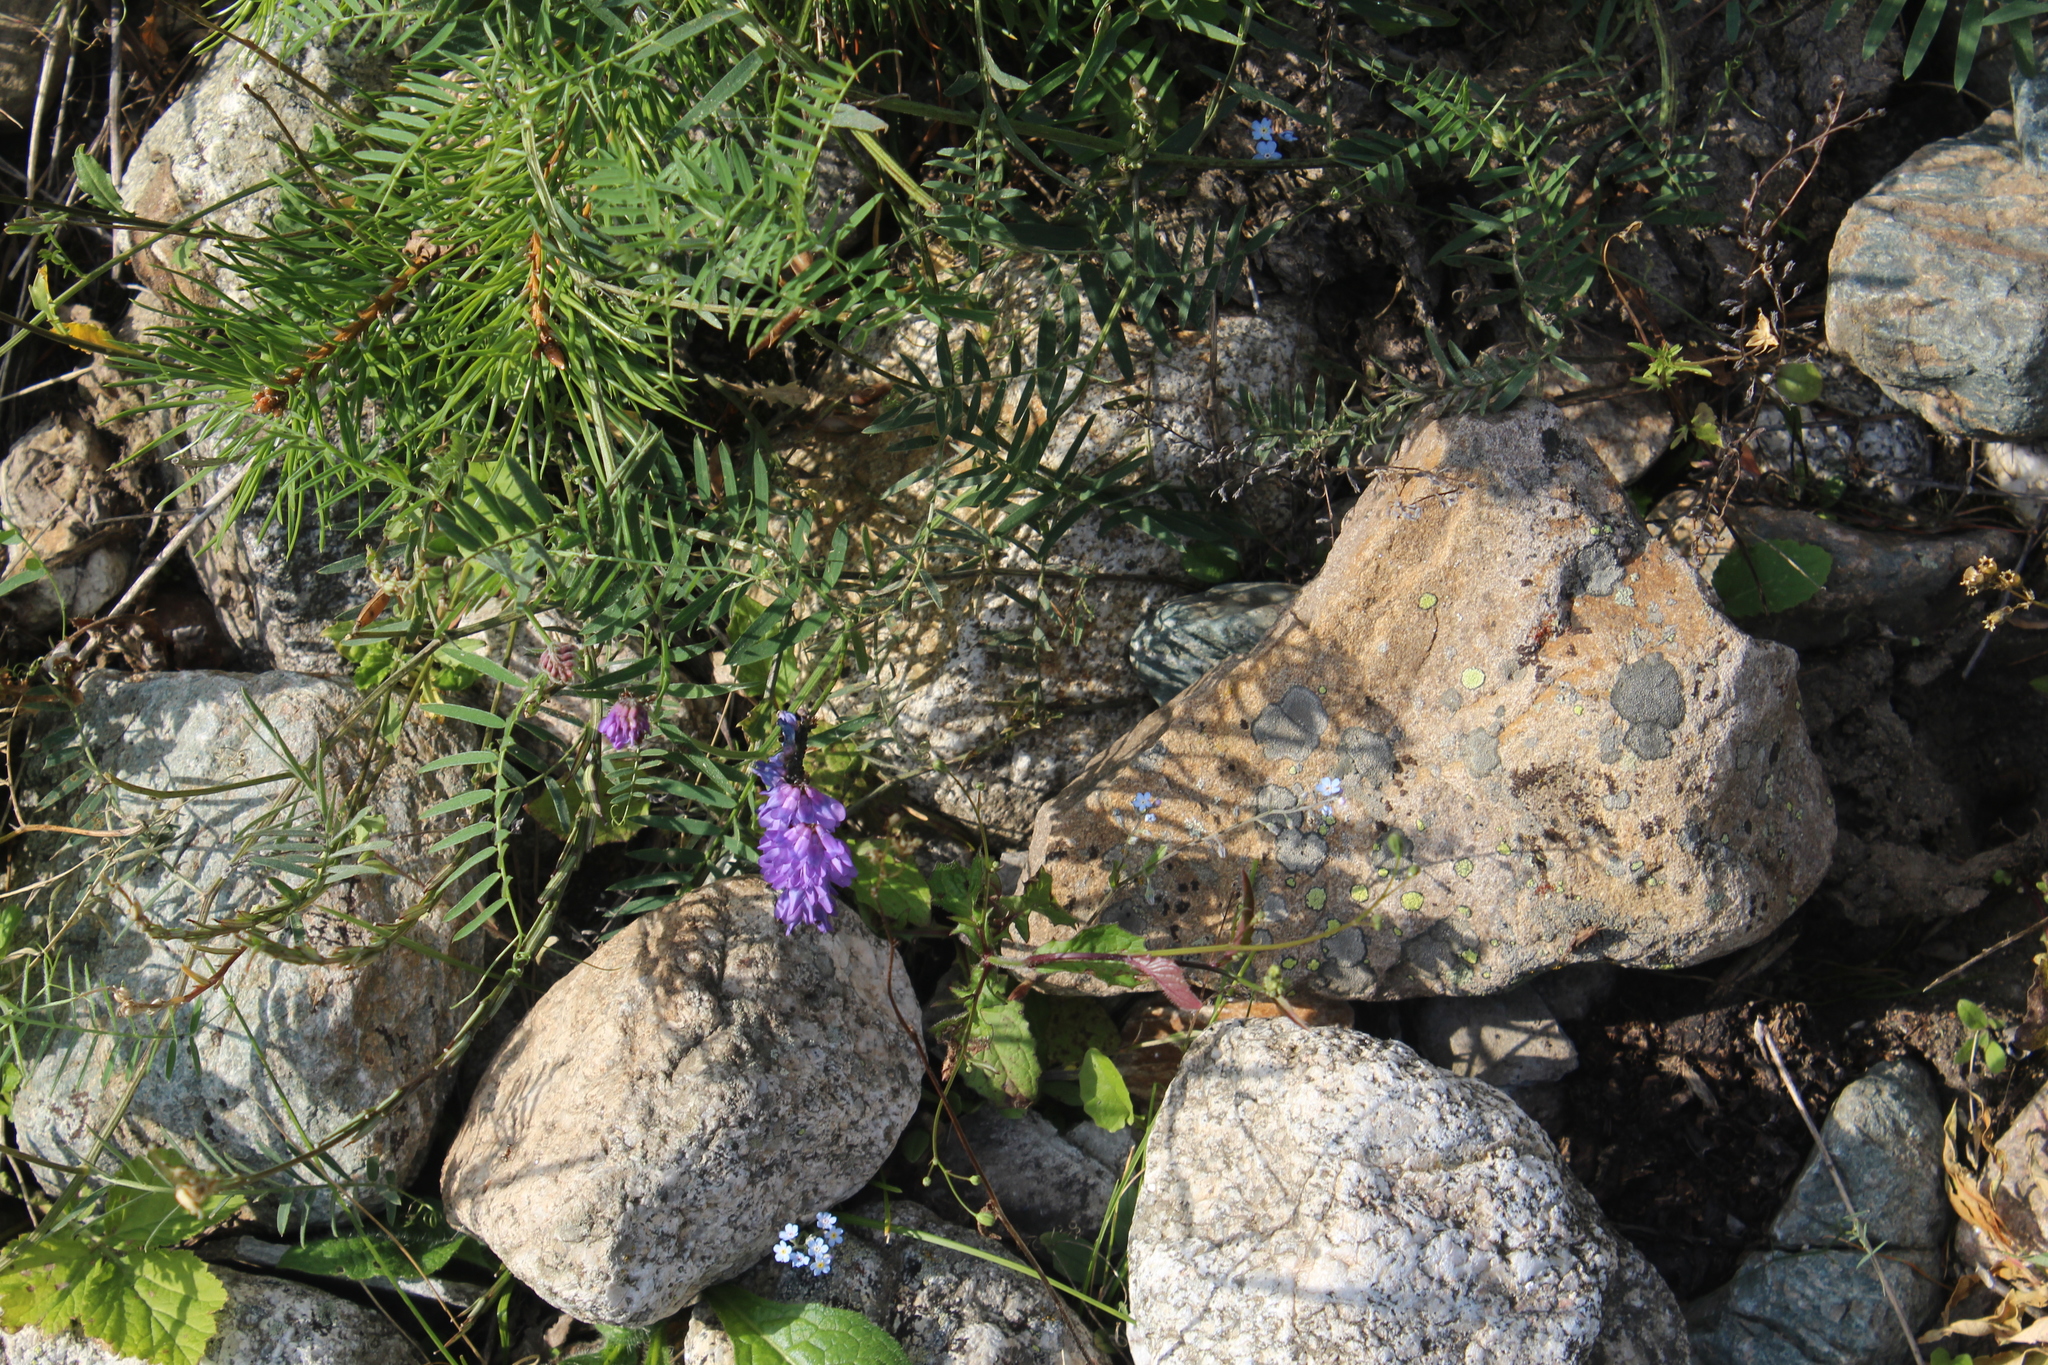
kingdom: Plantae
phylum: Tracheophyta
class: Magnoliopsida
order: Fabales
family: Fabaceae
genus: Vicia
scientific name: Vicia cracca
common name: Bird vetch
